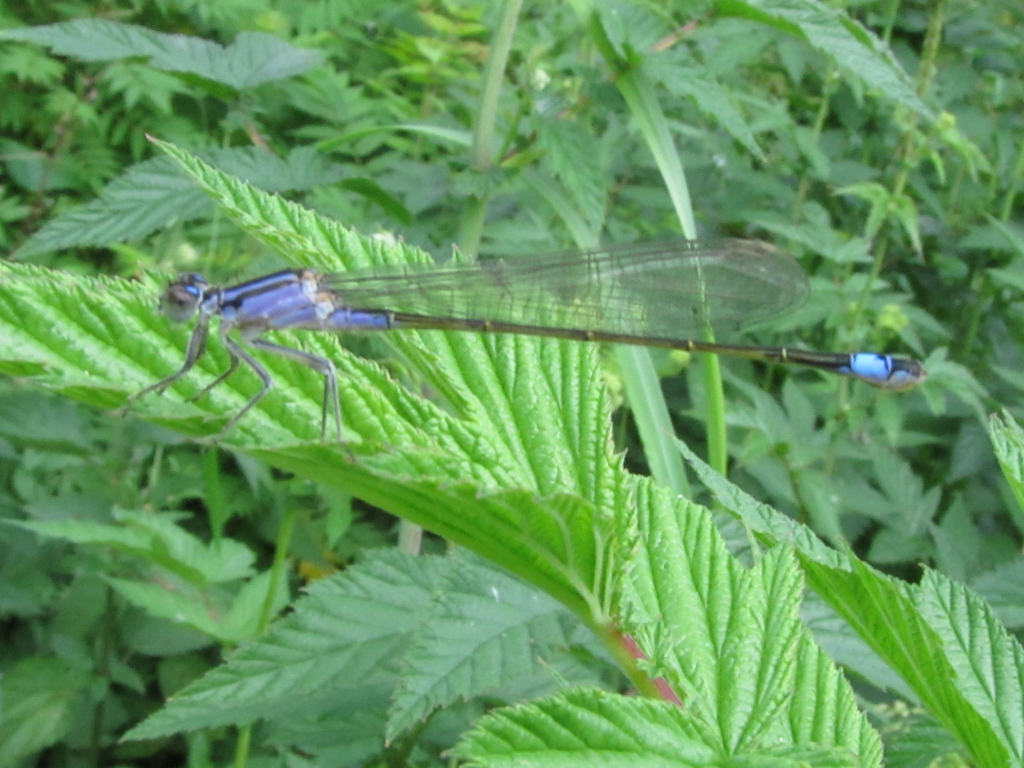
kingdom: Animalia
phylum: Arthropoda
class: Insecta
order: Odonata
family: Coenagrionidae
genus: Ischnura
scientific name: Ischnura elegans
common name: Blue-tailed damselfly
